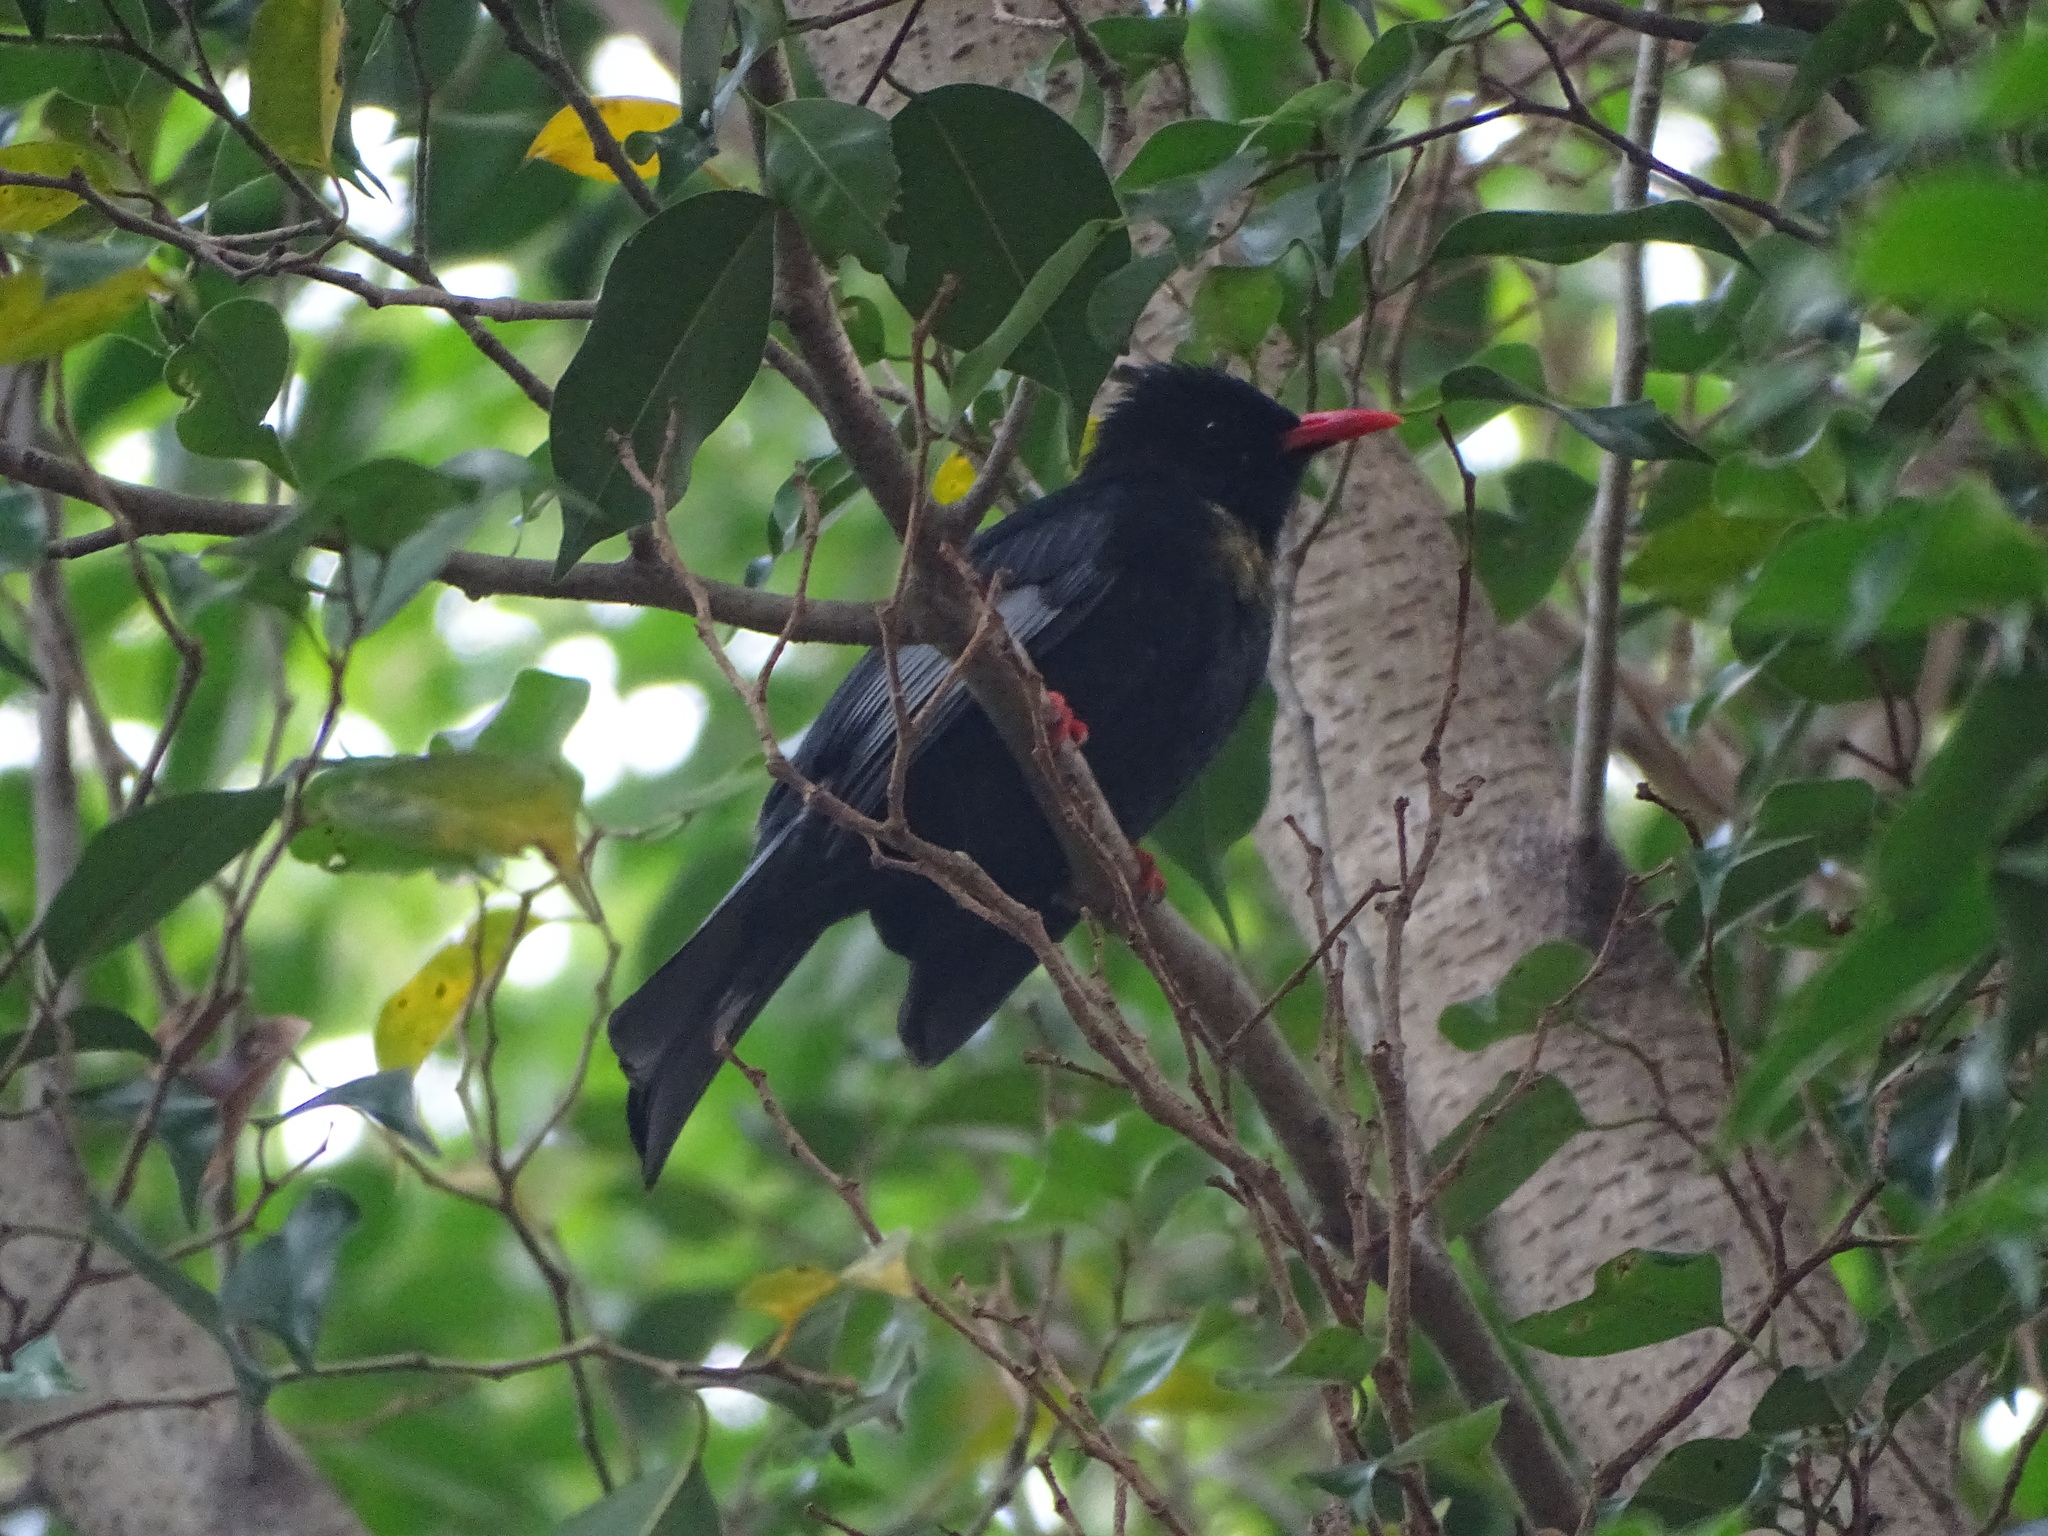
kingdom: Animalia
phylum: Chordata
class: Aves
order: Passeriformes
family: Pycnonotidae
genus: Hypsipetes
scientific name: Hypsipetes leucocephalus
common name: Black bulbul
